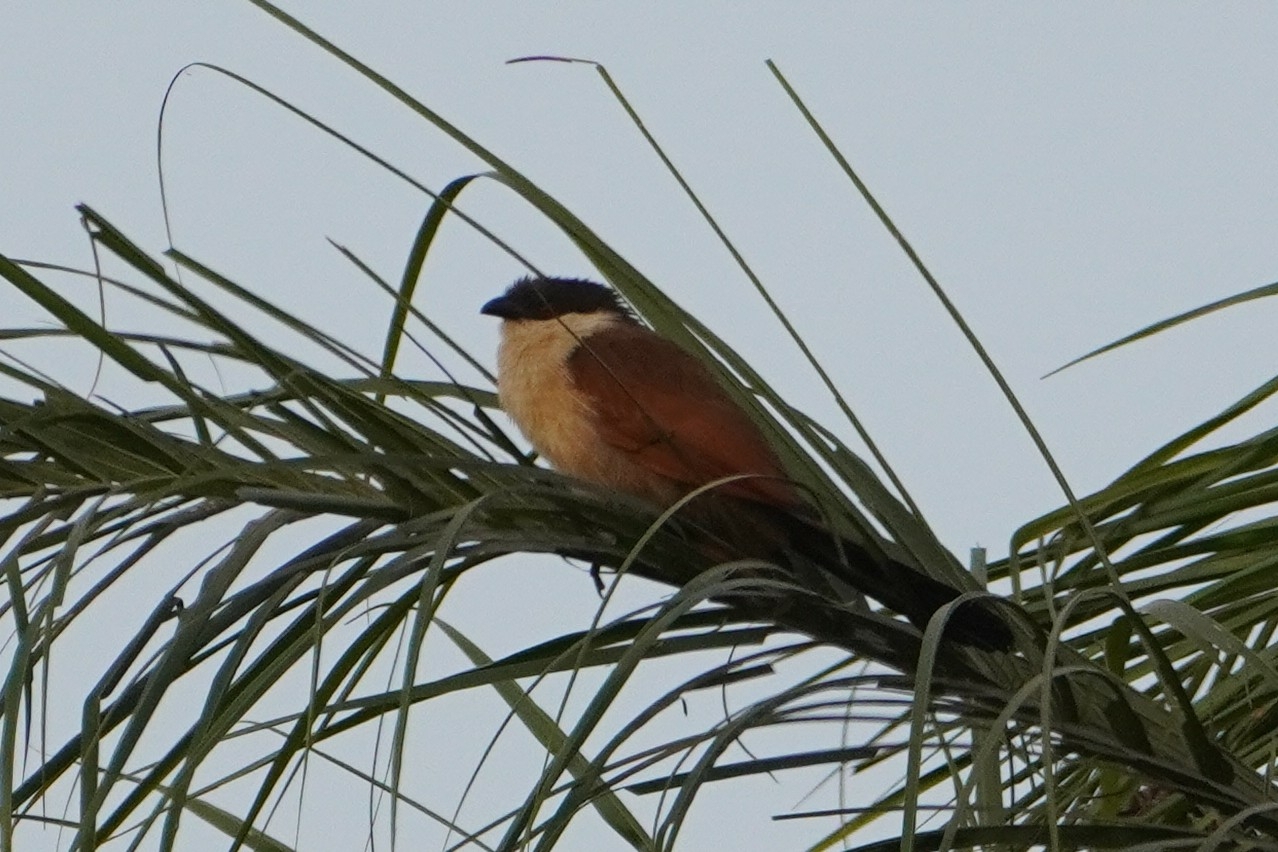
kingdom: Animalia
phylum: Chordata
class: Aves
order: Cuculiformes
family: Cuculidae
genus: Centropus
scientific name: Centropus senegalensis
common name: Senegal coucal
